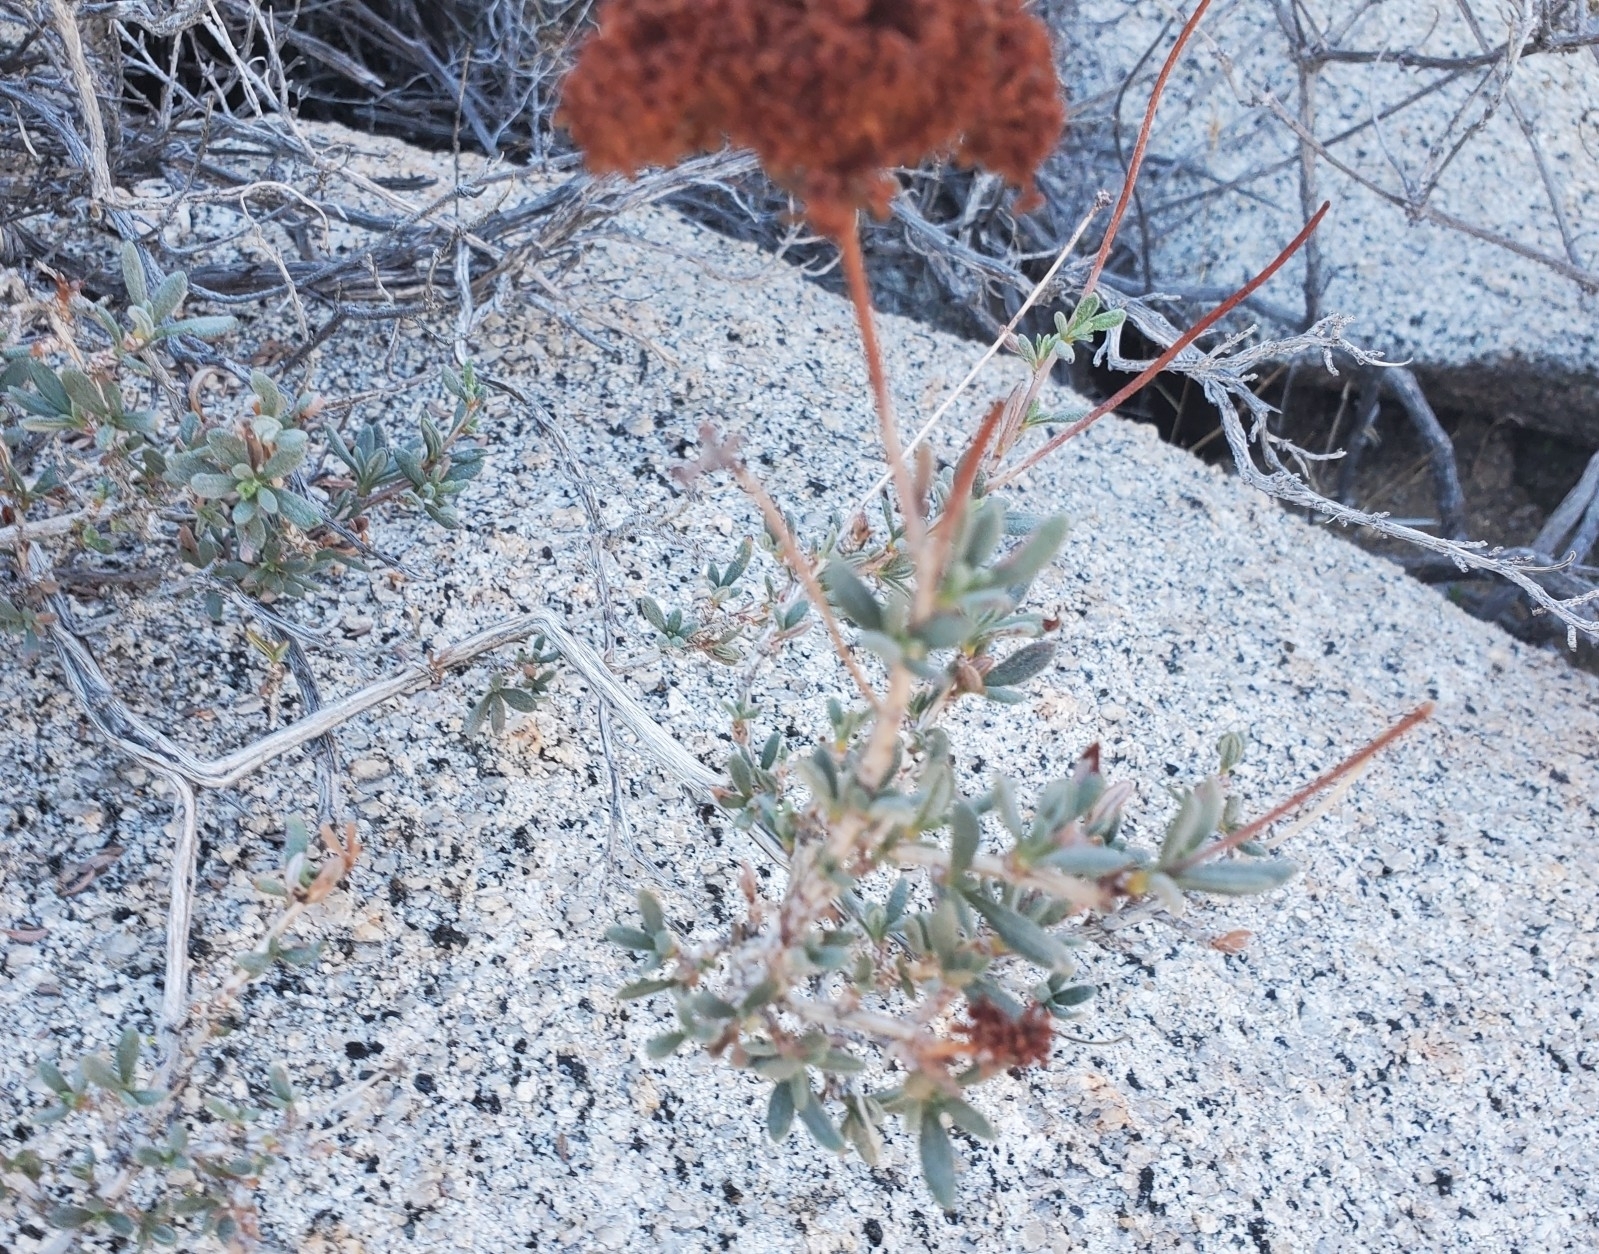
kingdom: Plantae
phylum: Tracheophyta
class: Magnoliopsida
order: Caryophyllales
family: Polygonaceae
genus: Eriogonum
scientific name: Eriogonum fasciculatum
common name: California wild buckwheat
